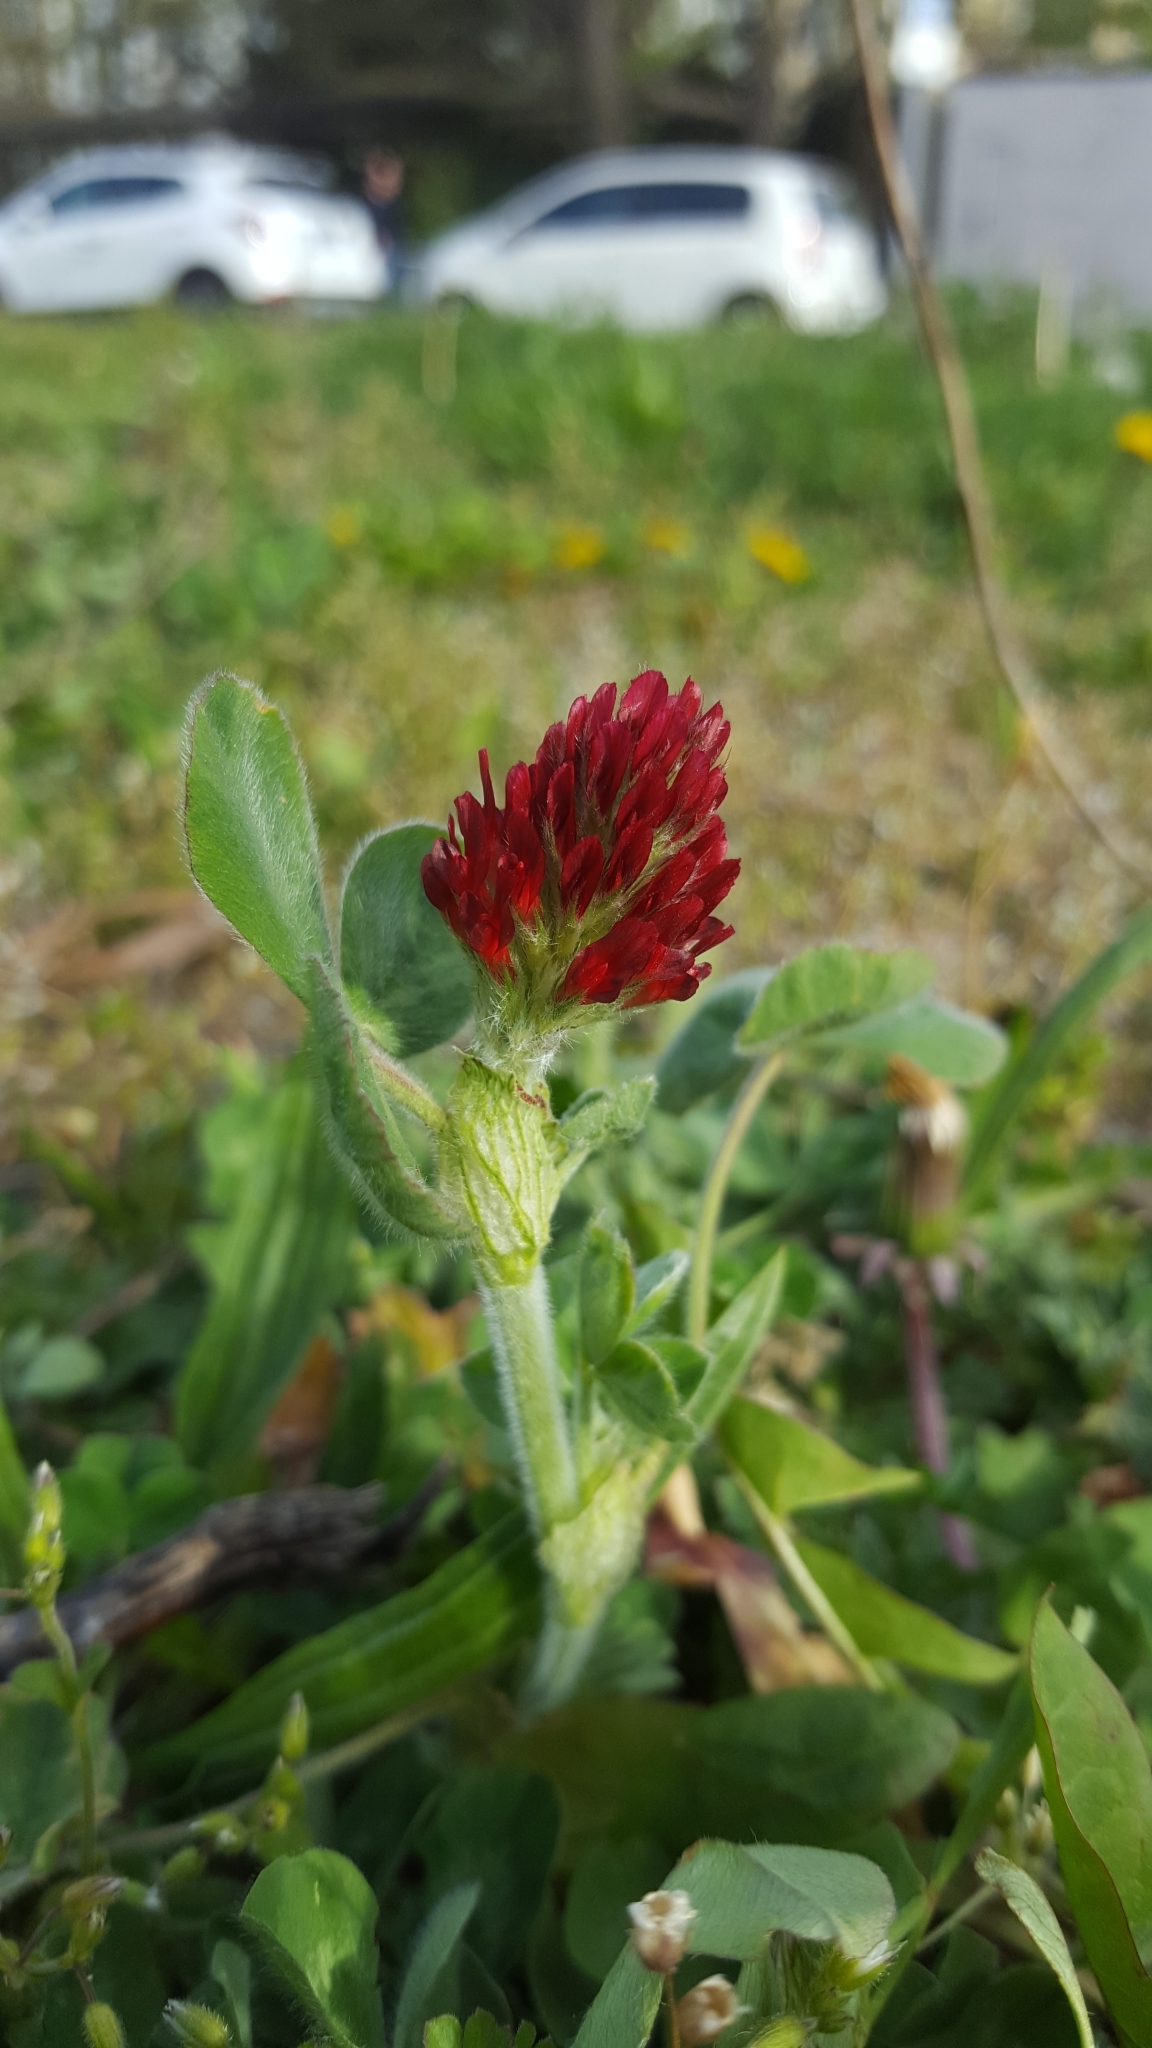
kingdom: Plantae
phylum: Tracheophyta
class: Magnoliopsida
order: Fabales
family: Fabaceae
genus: Trifolium
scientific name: Trifolium incarnatum
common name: Crimson clover
